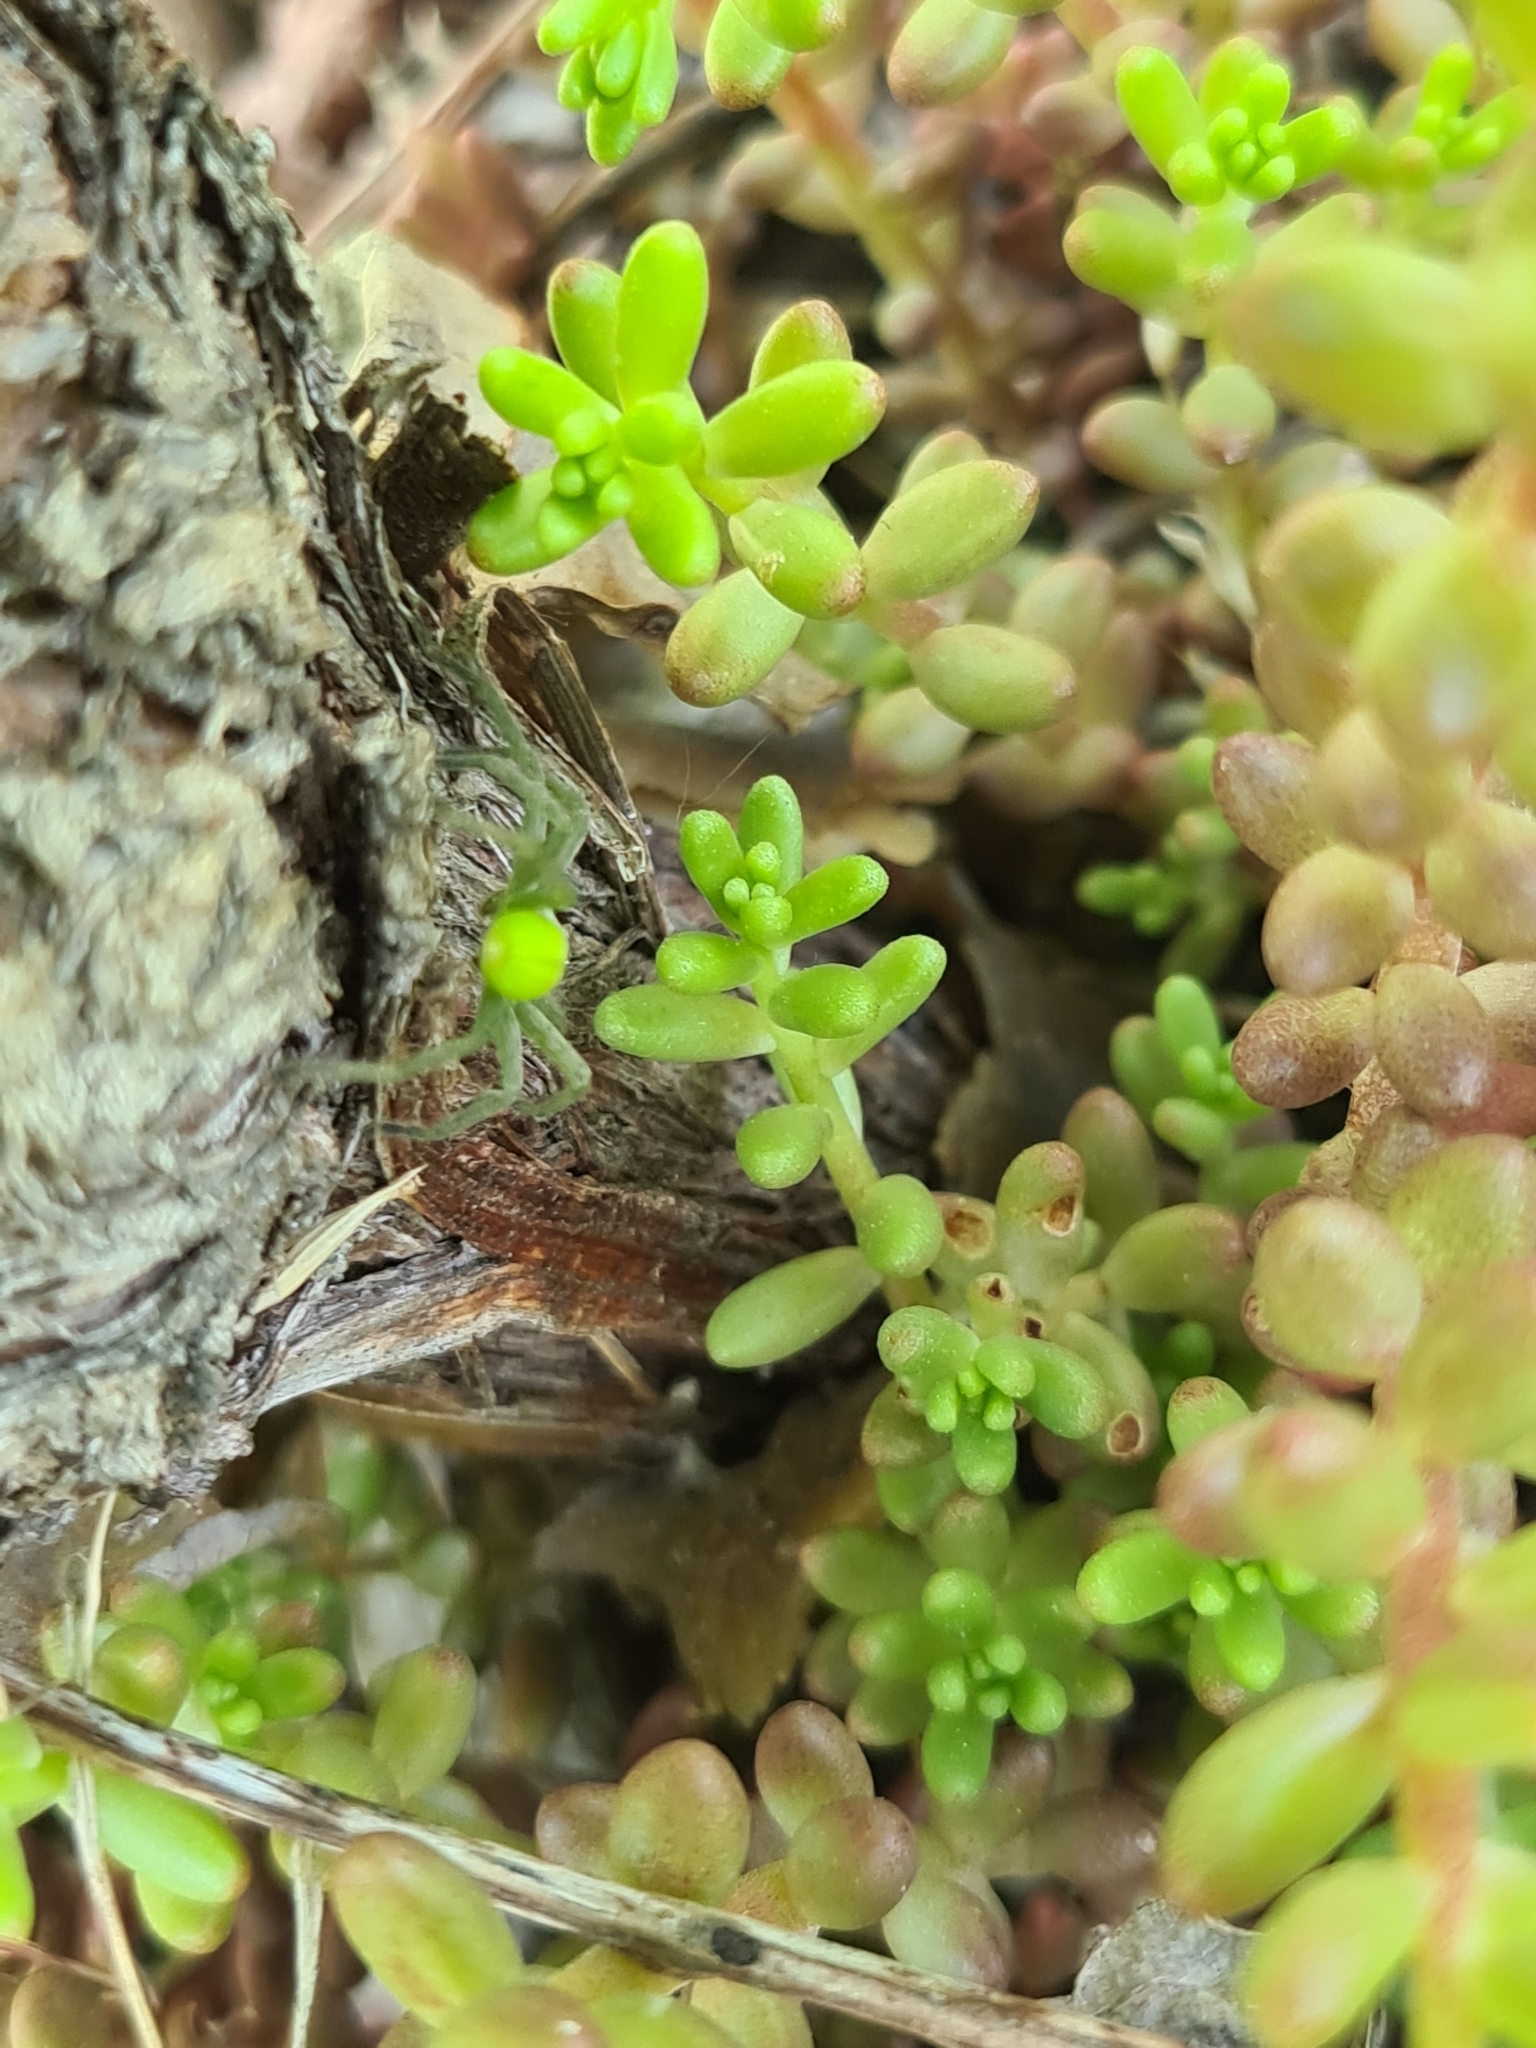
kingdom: Plantae
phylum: Tracheophyta
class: Magnoliopsida
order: Saxifragales
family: Crassulaceae
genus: Sedum
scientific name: Sedum album
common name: White stonecrop
